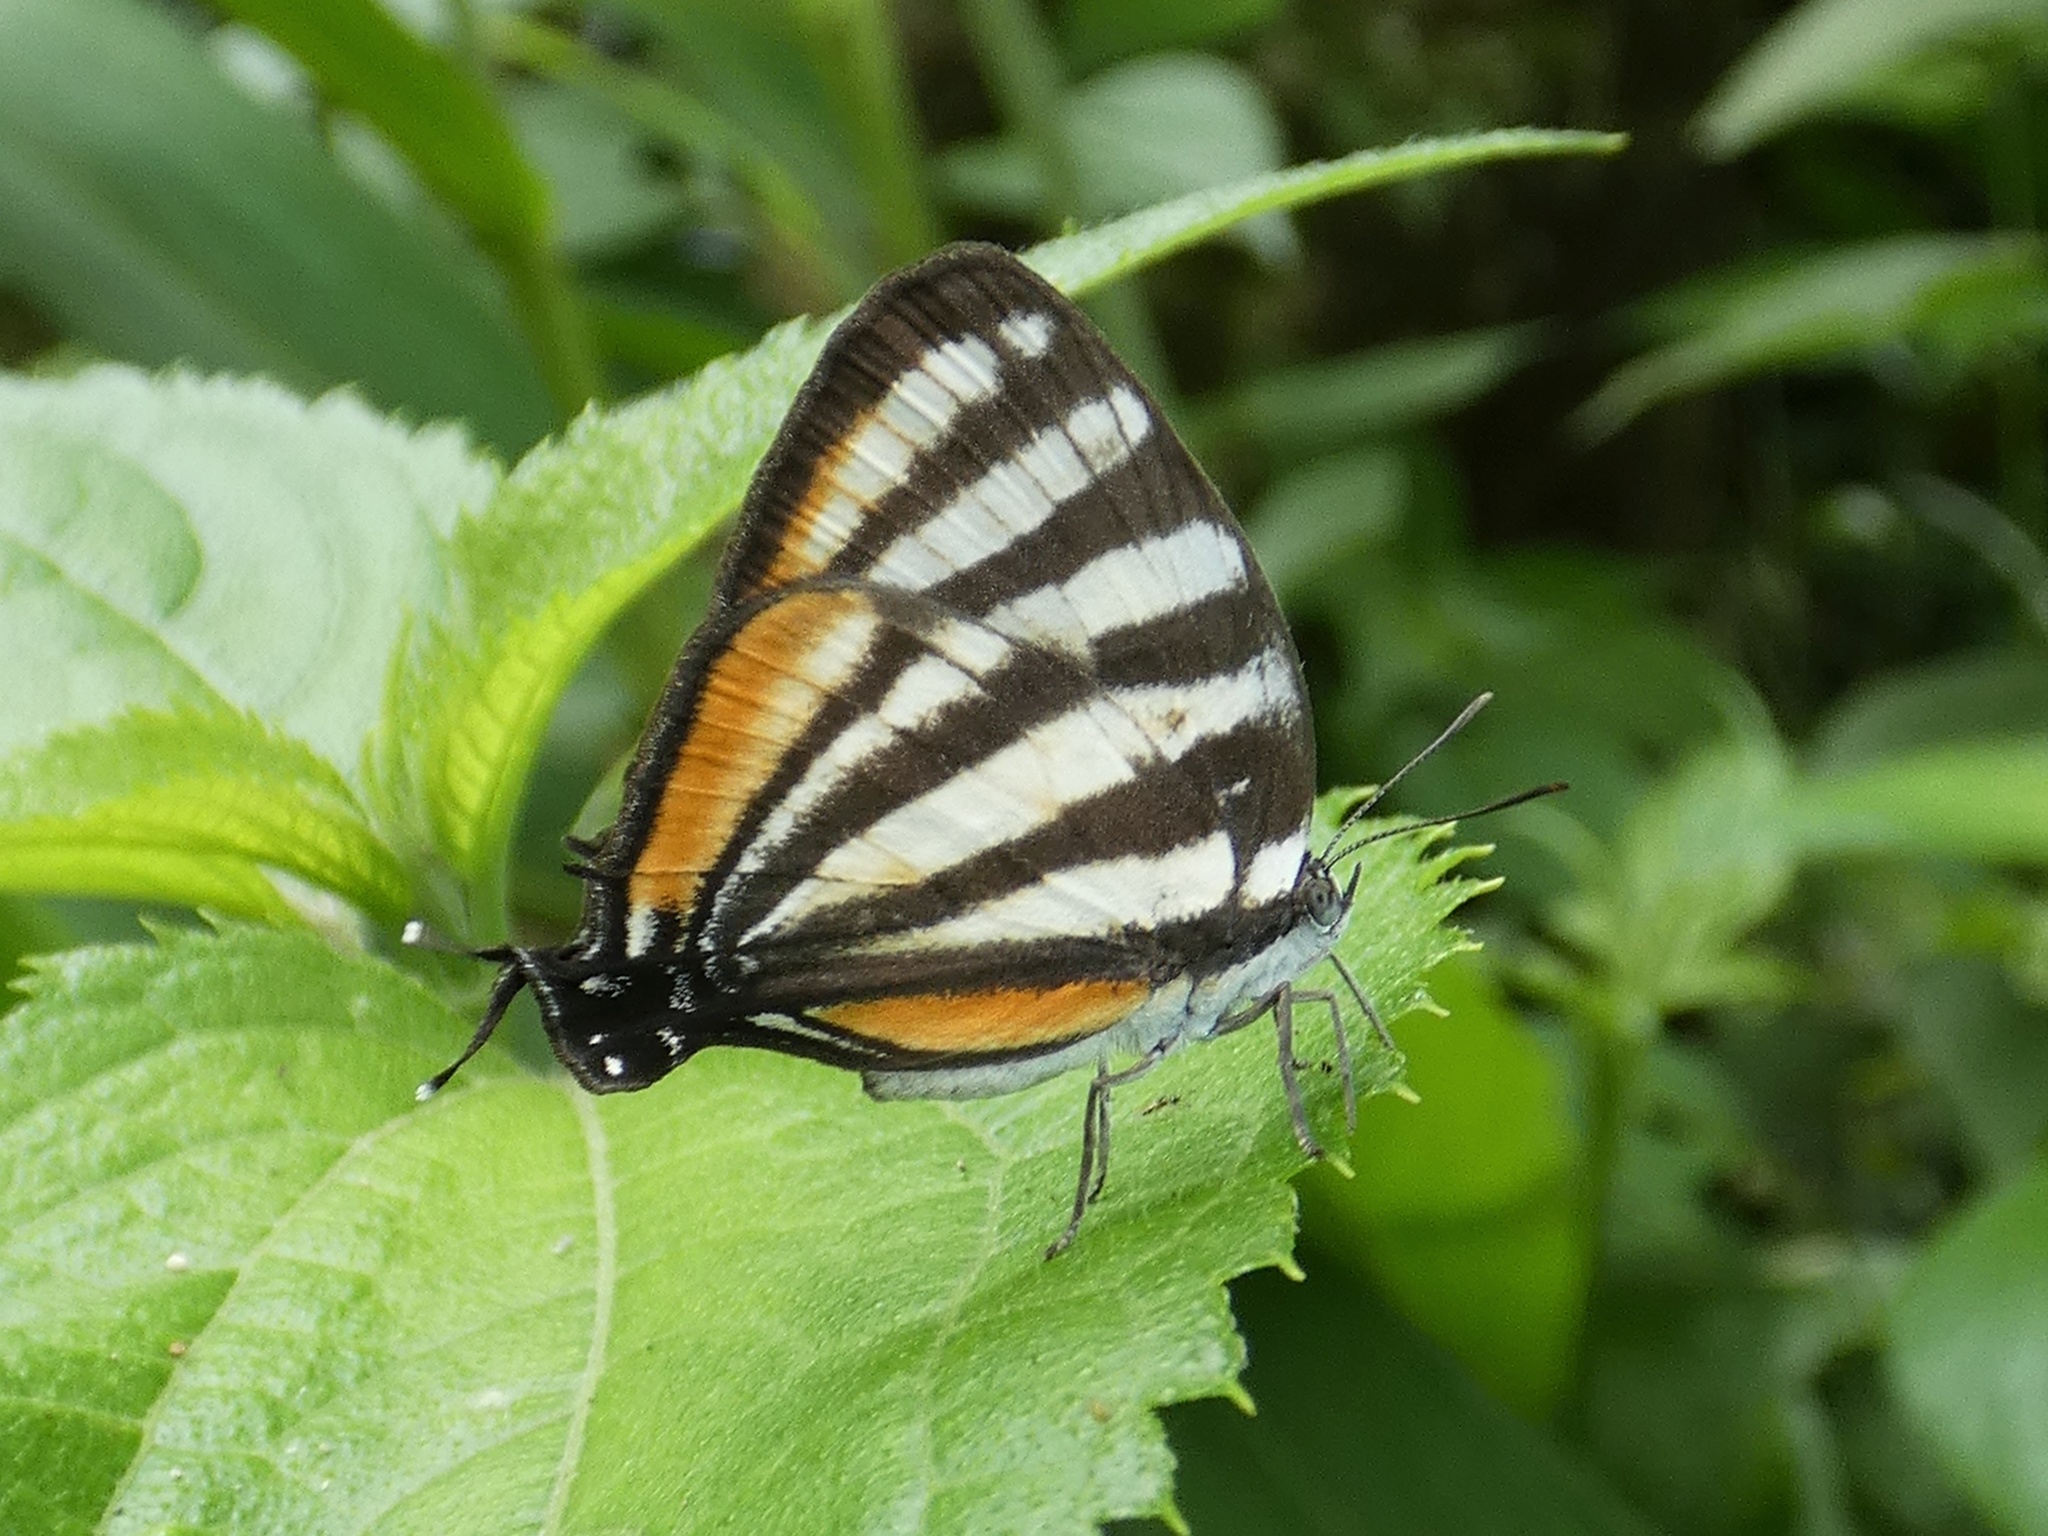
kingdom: Animalia
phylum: Arthropoda
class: Insecta
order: Lepidoptera
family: Lycaenidae
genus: Arawacus
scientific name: Arawacus lincoides
